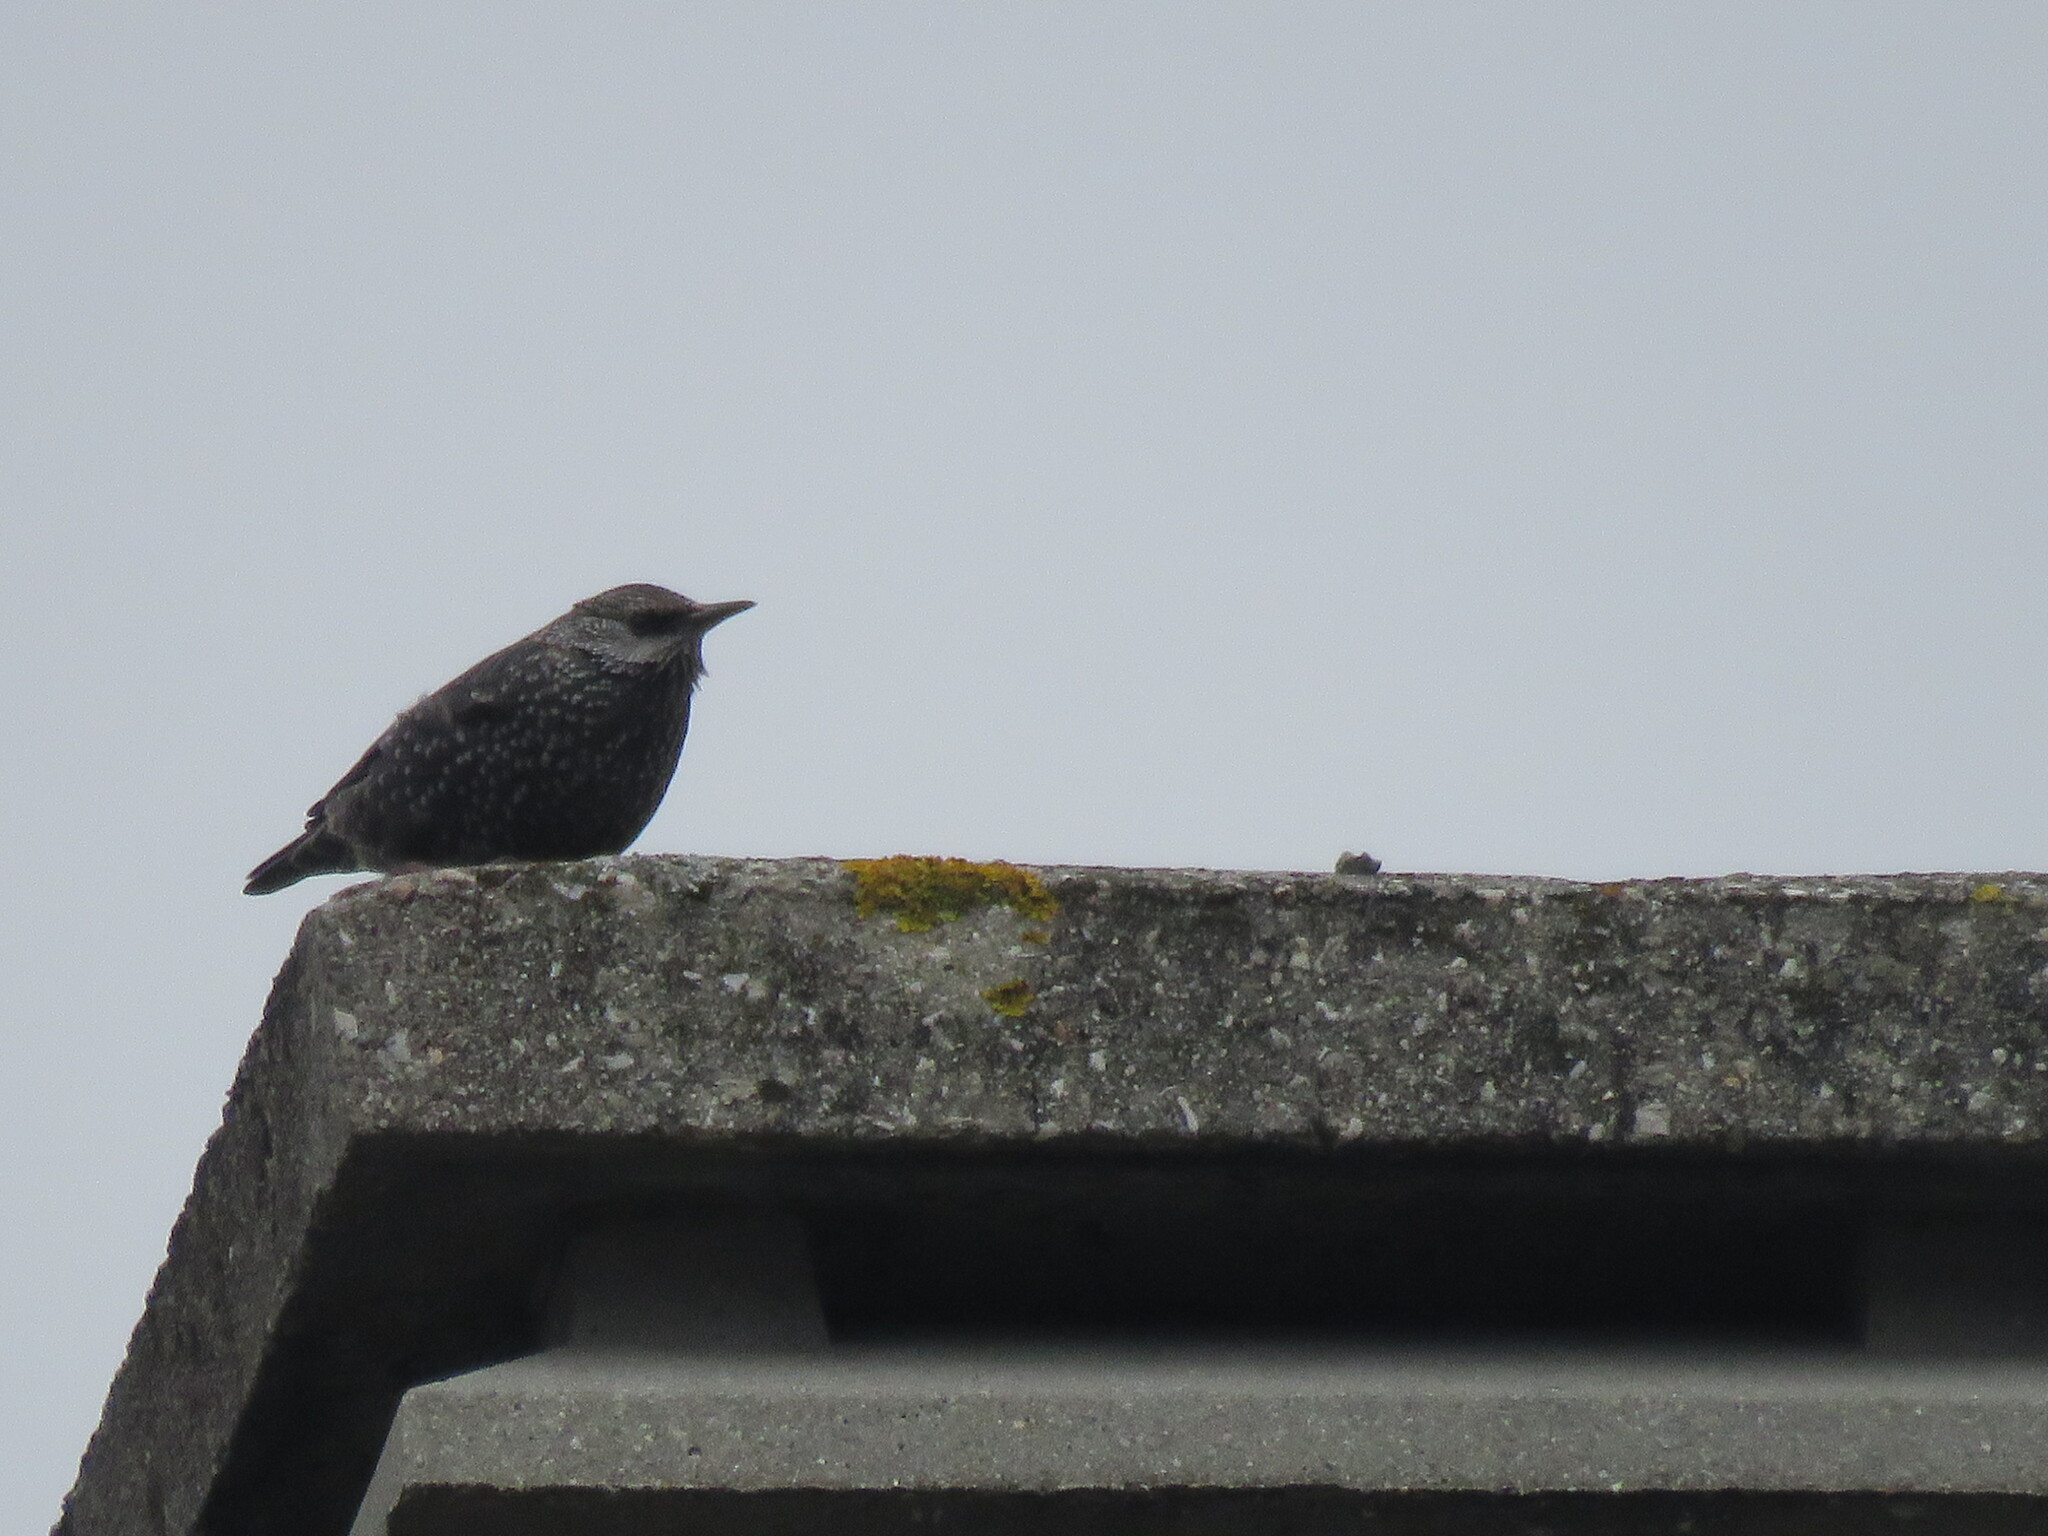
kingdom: Animalia
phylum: Chordata
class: Aves
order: Passeriformes
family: Sturnidae
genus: Sturnus
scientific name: Sturnus unicolor
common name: Spotless starling
